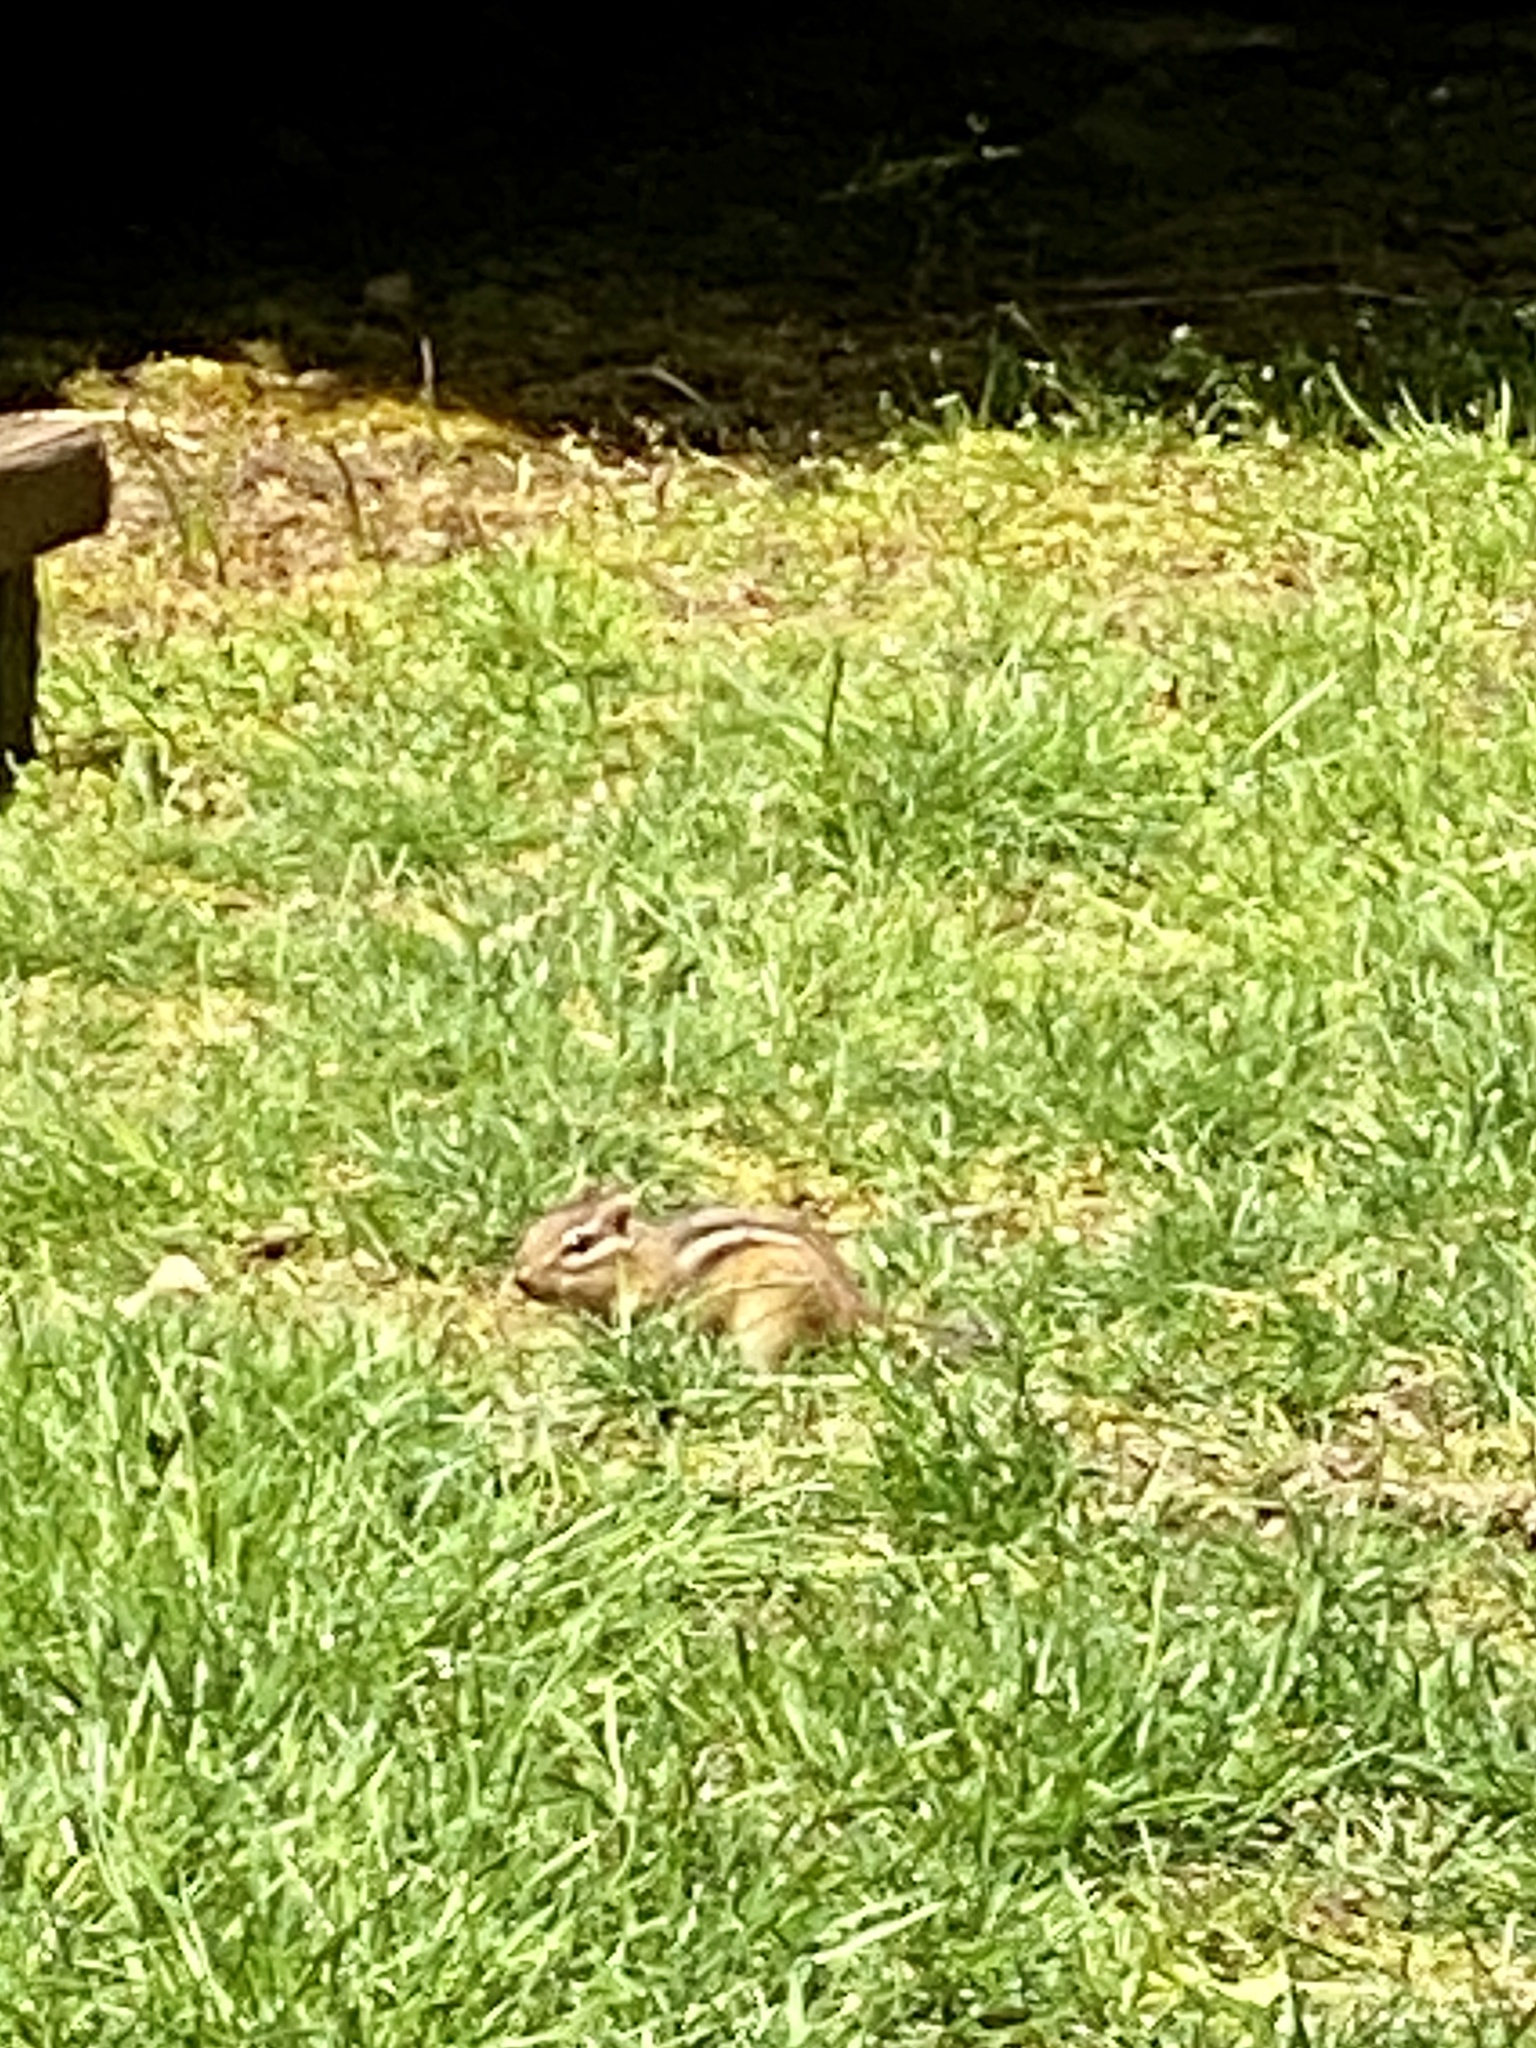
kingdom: Animalia
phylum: Chordata
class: Mammalia
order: Rodentia
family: Sciuridae
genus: Tamias
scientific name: Tamias striatus
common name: Eastern chipmunk
